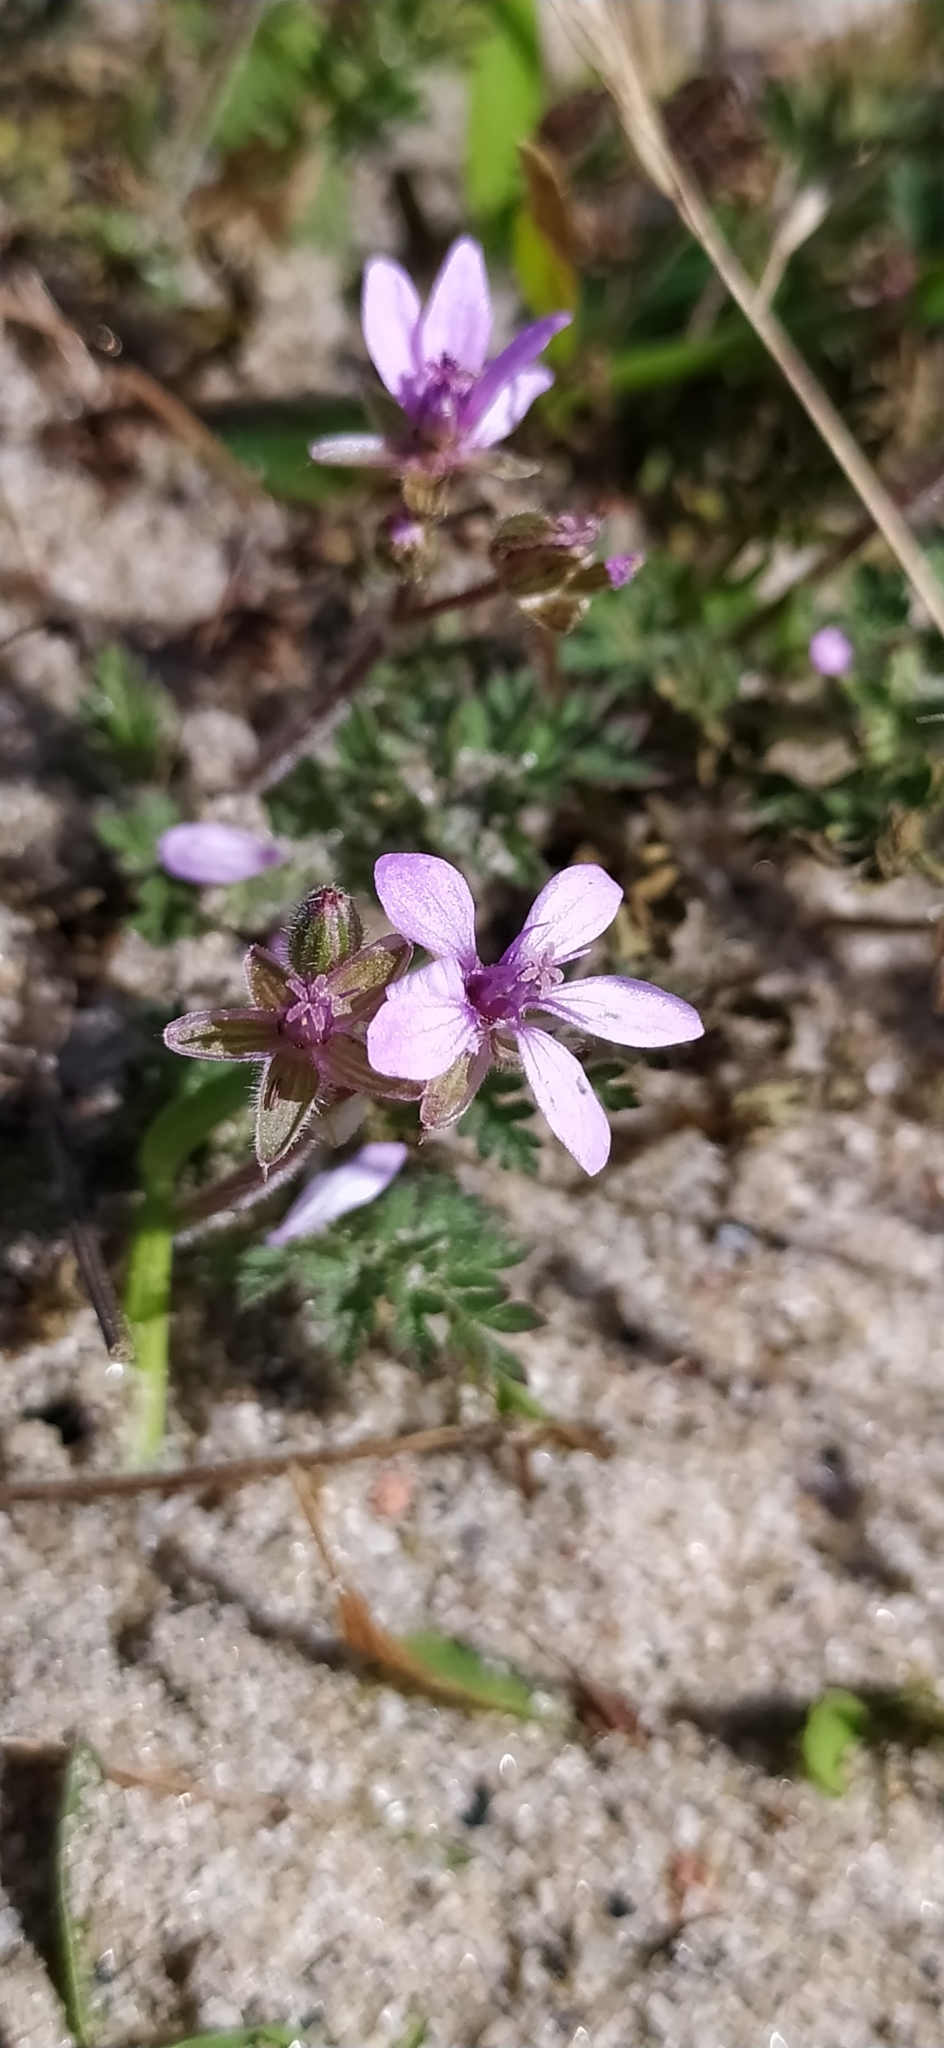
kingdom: Plantae
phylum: Tracheophyta
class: Magnoliopsida
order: Geraniales
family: Geraniaceae
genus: Erodium
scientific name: Erodium cicutarium
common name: Common stork's-bill
